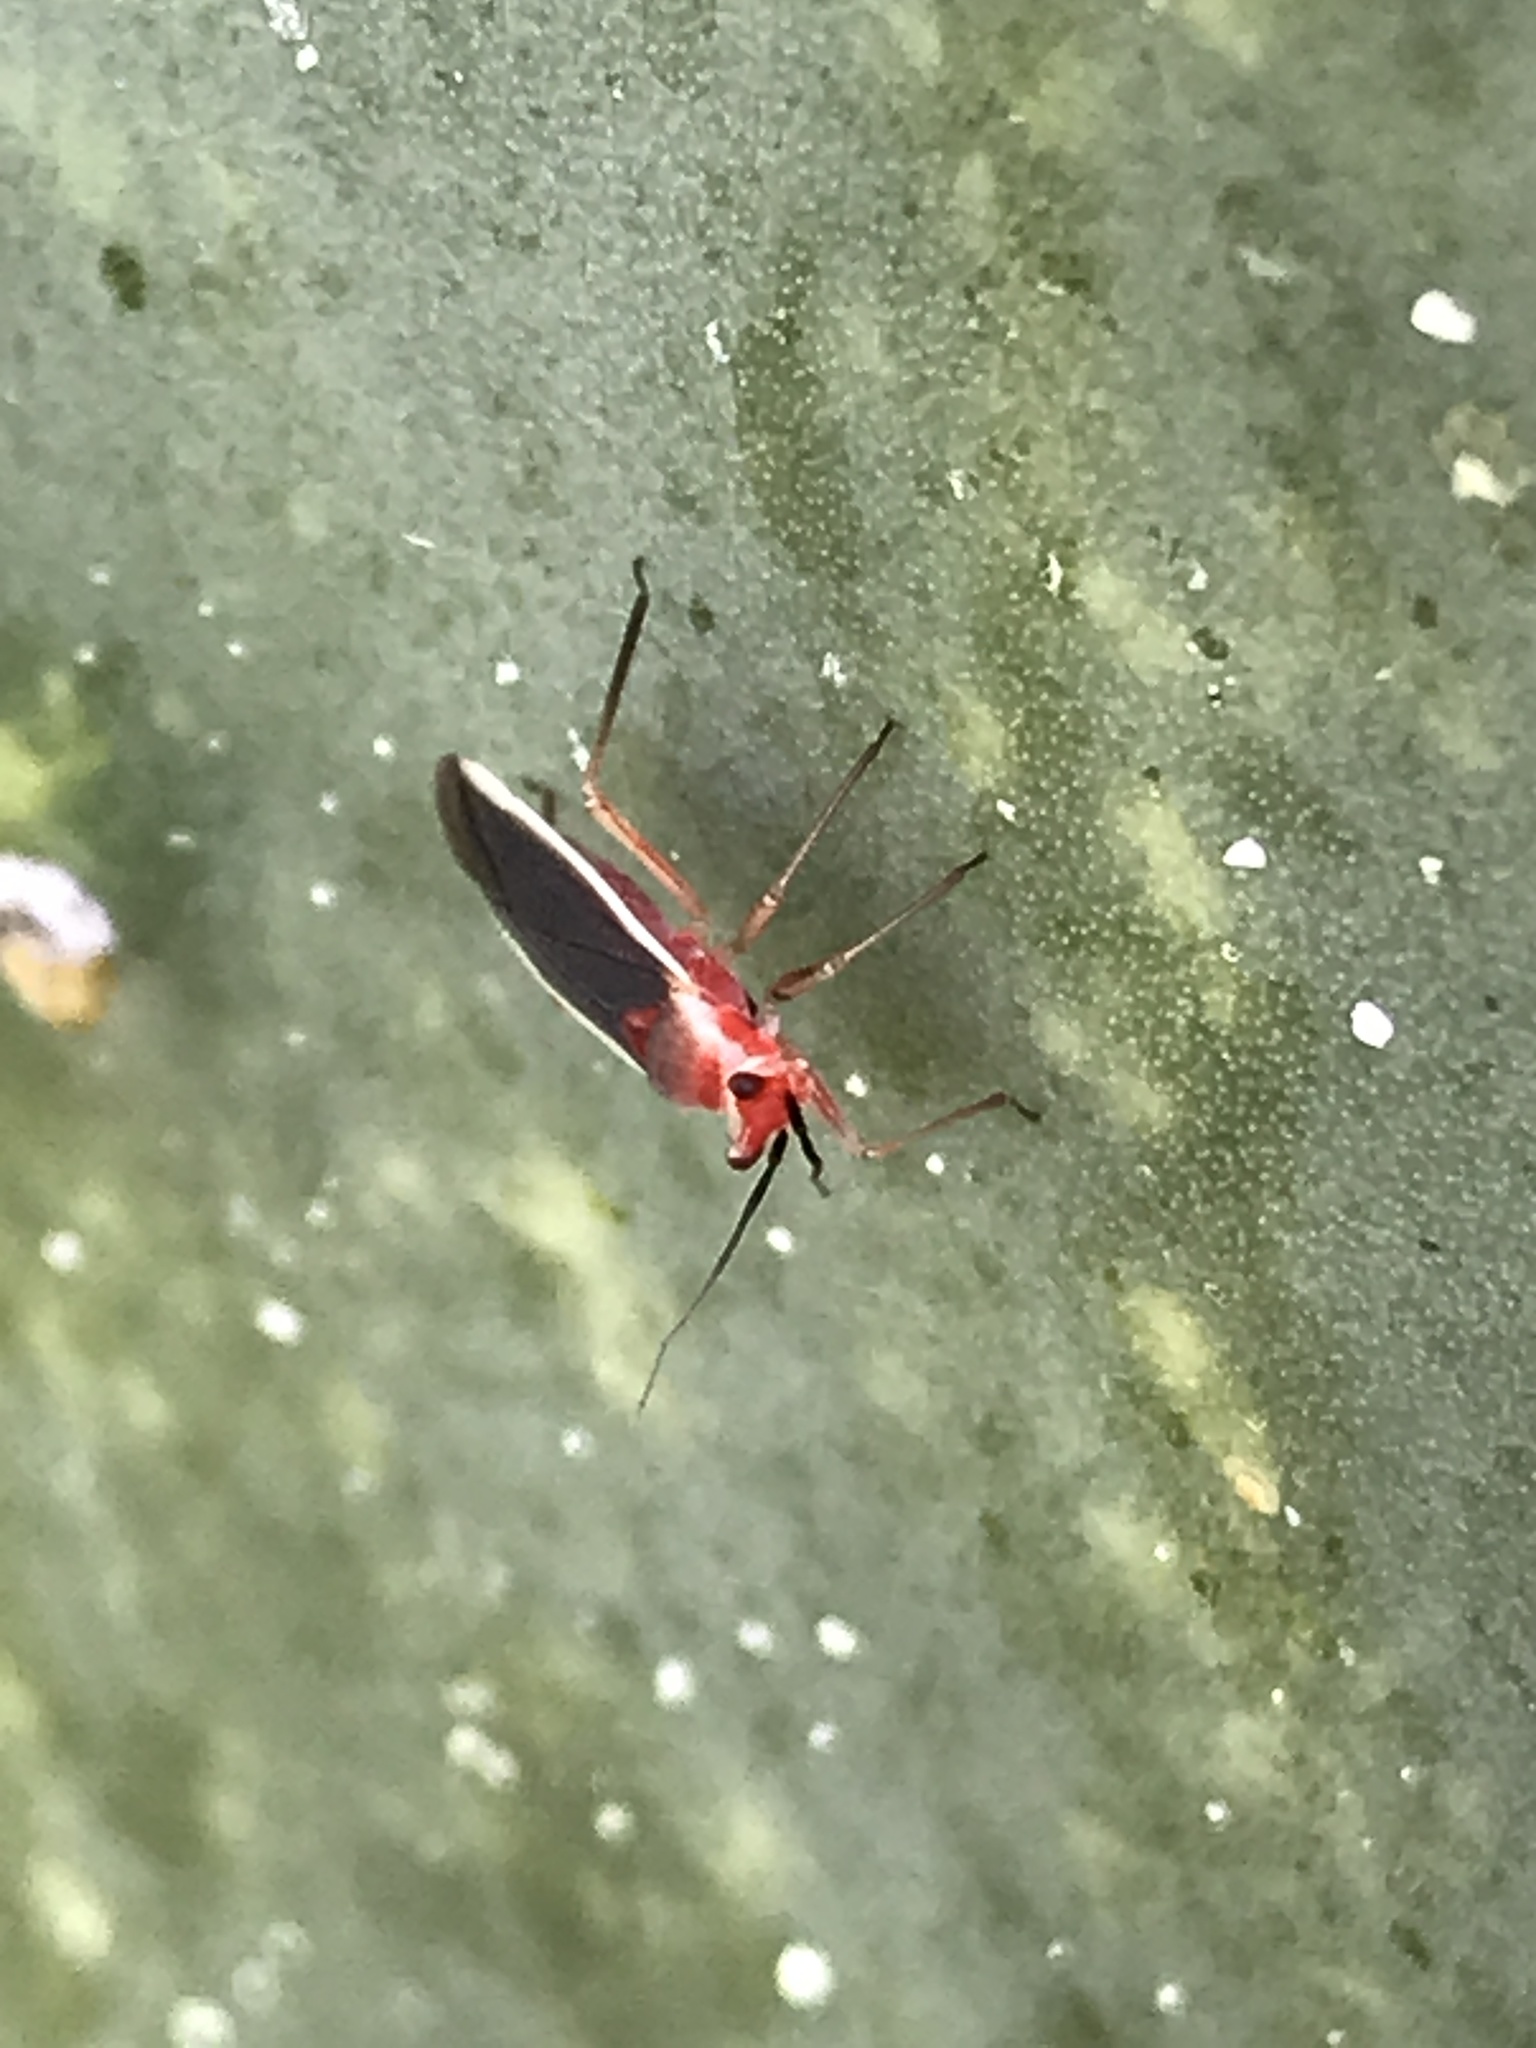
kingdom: Animalia
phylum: Arthropoda
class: Insecta
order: Hemiptera
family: Miridae
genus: Hesperolabops
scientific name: Hesperolabops gelastops
